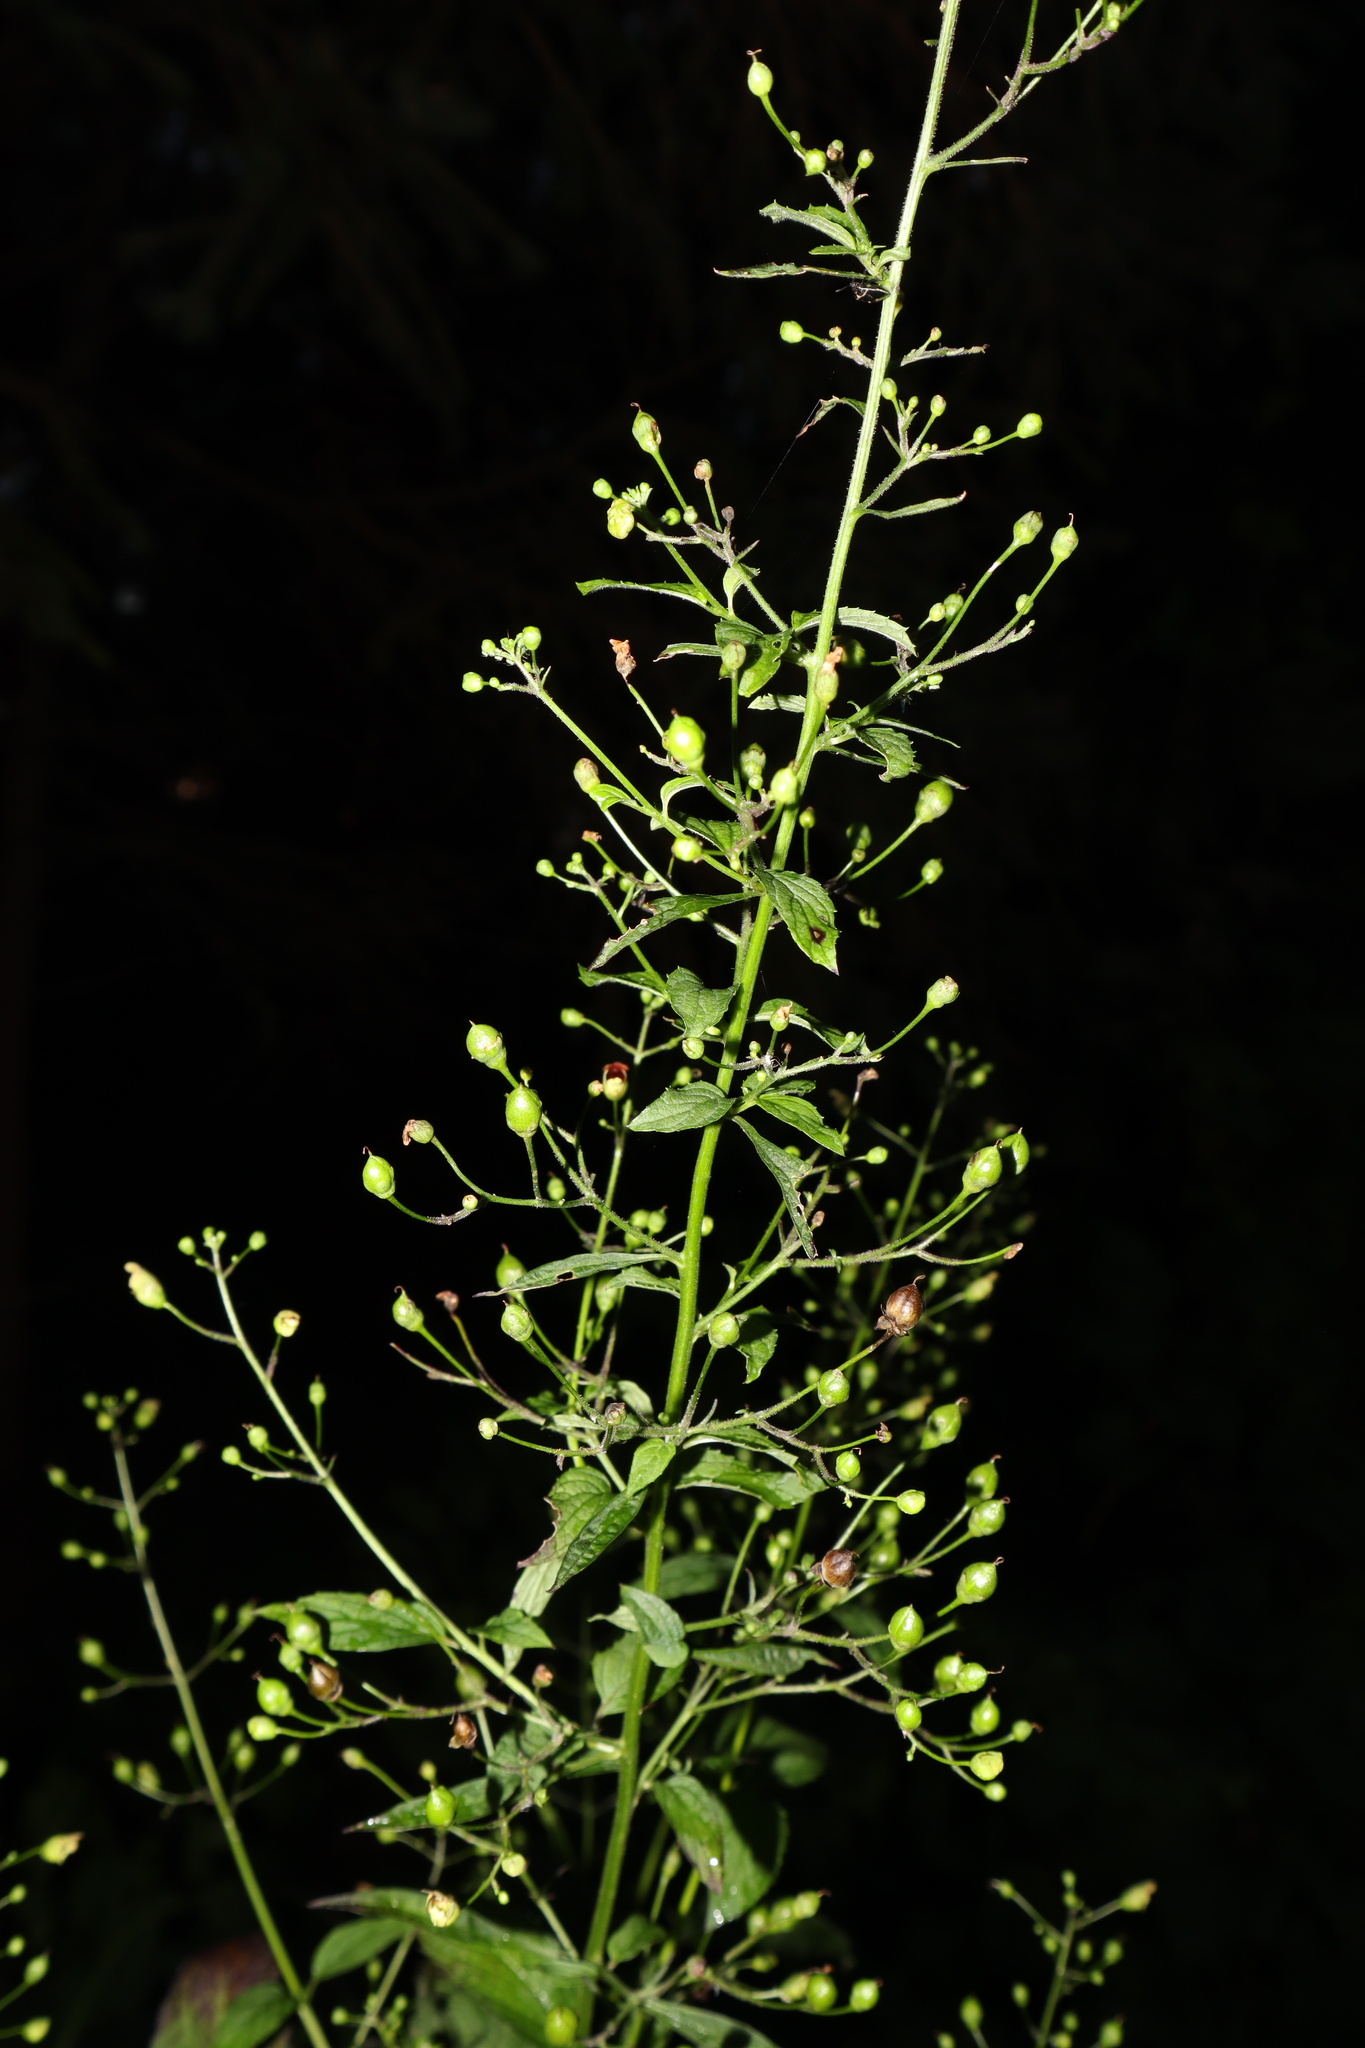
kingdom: Plantae
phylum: Tracheophyta
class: Magnoliopsida
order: Lamiales
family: Scrophulariaceae
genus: Scrophularia
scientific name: Scrophularia marilandica
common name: Eastern figwort
